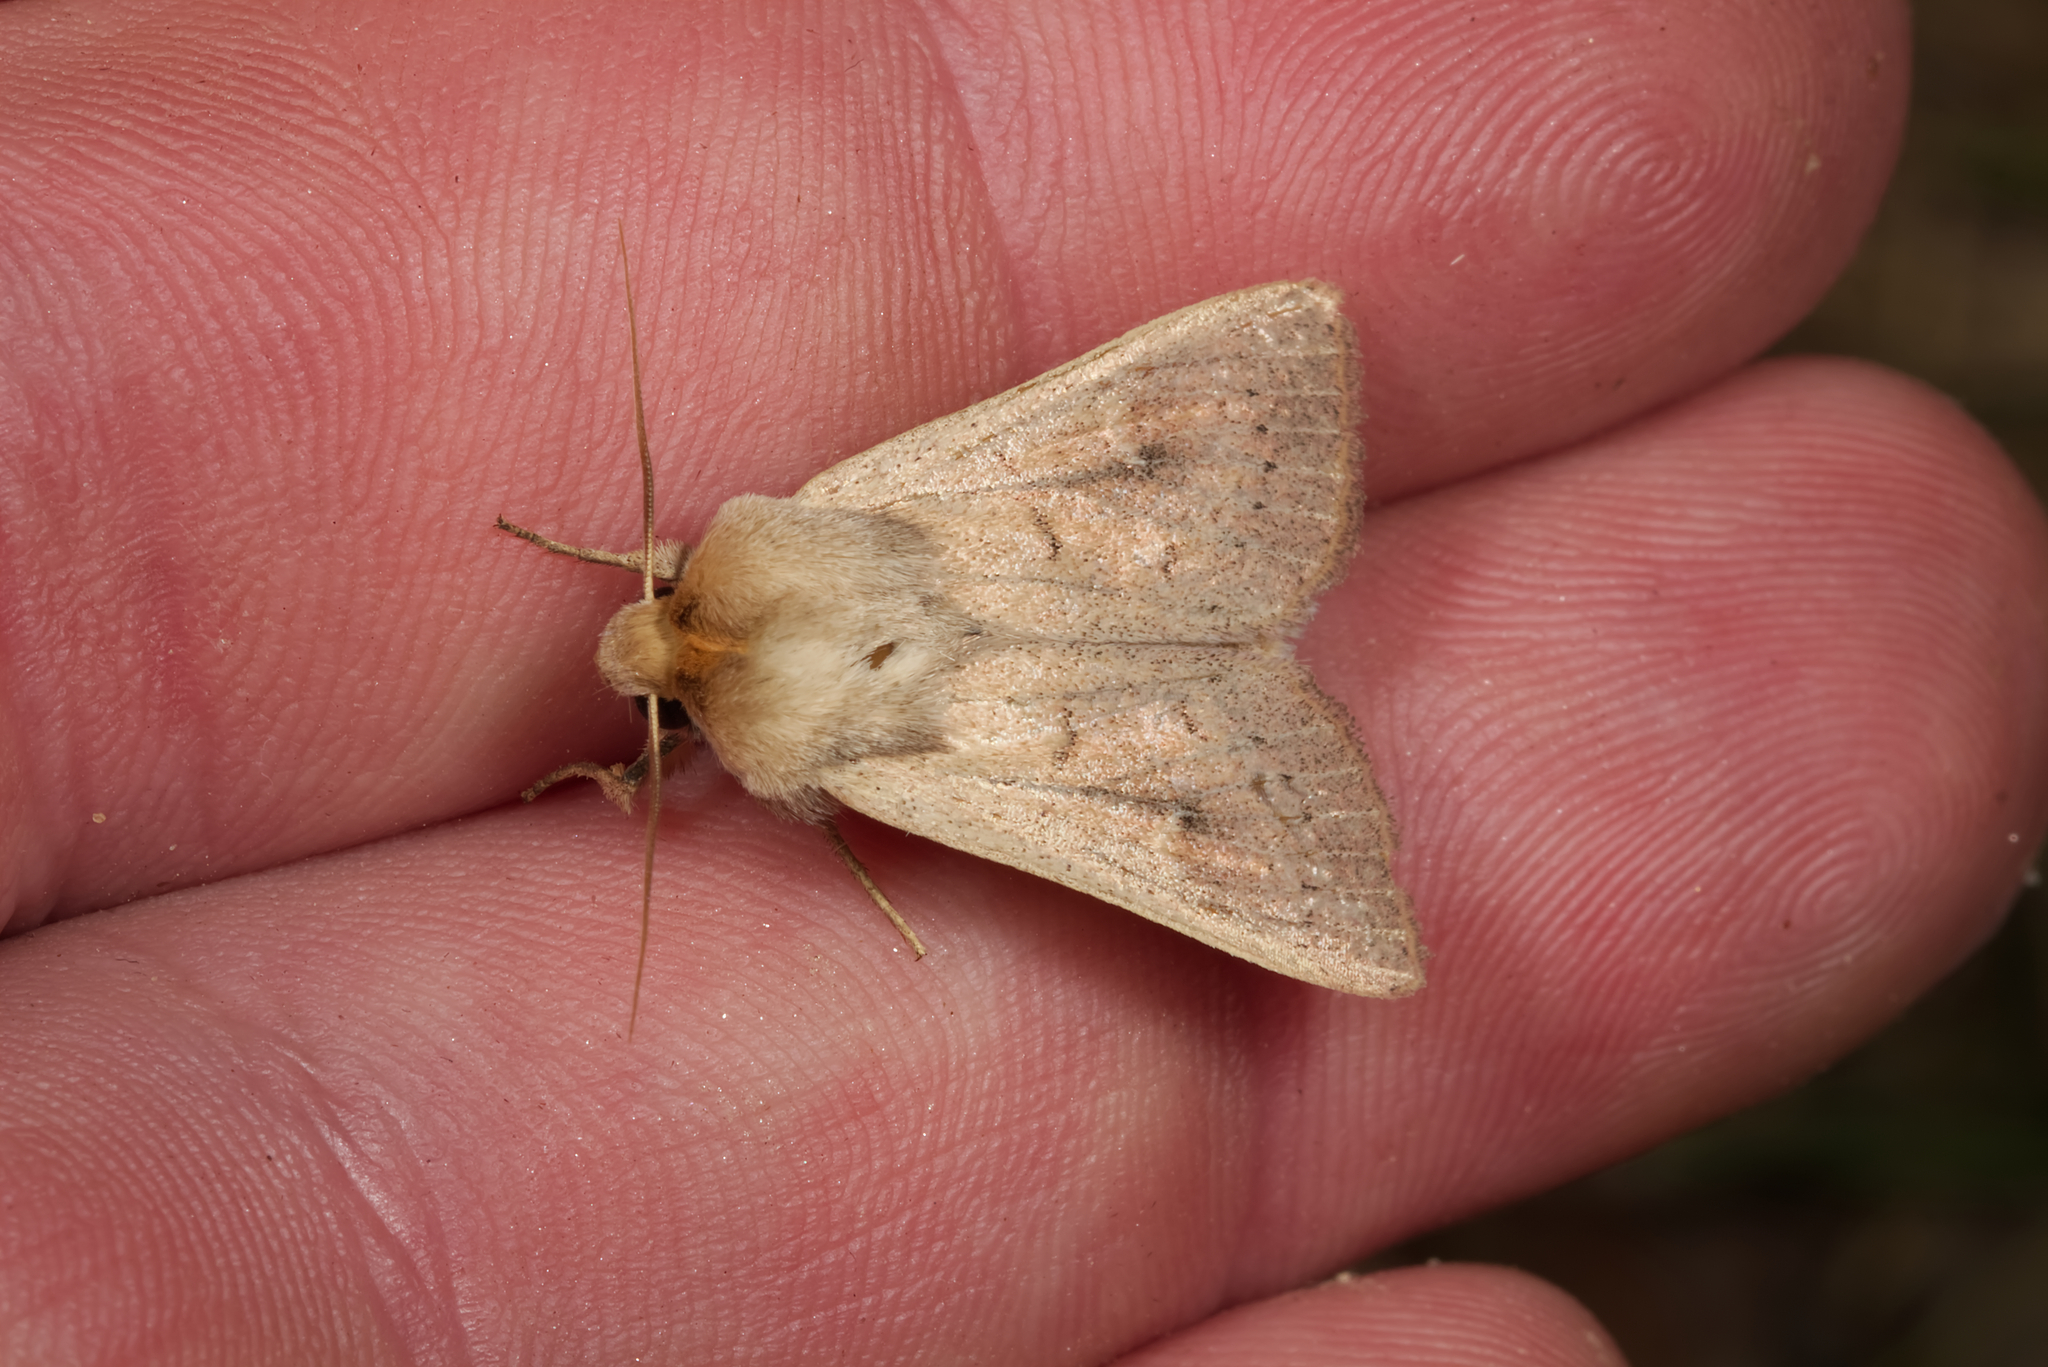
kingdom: Animalia
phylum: Arthropoda
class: Insecta
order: Lepidoptera
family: Noctuidae
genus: Mythimna
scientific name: Mythimna ferrago
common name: Clay
